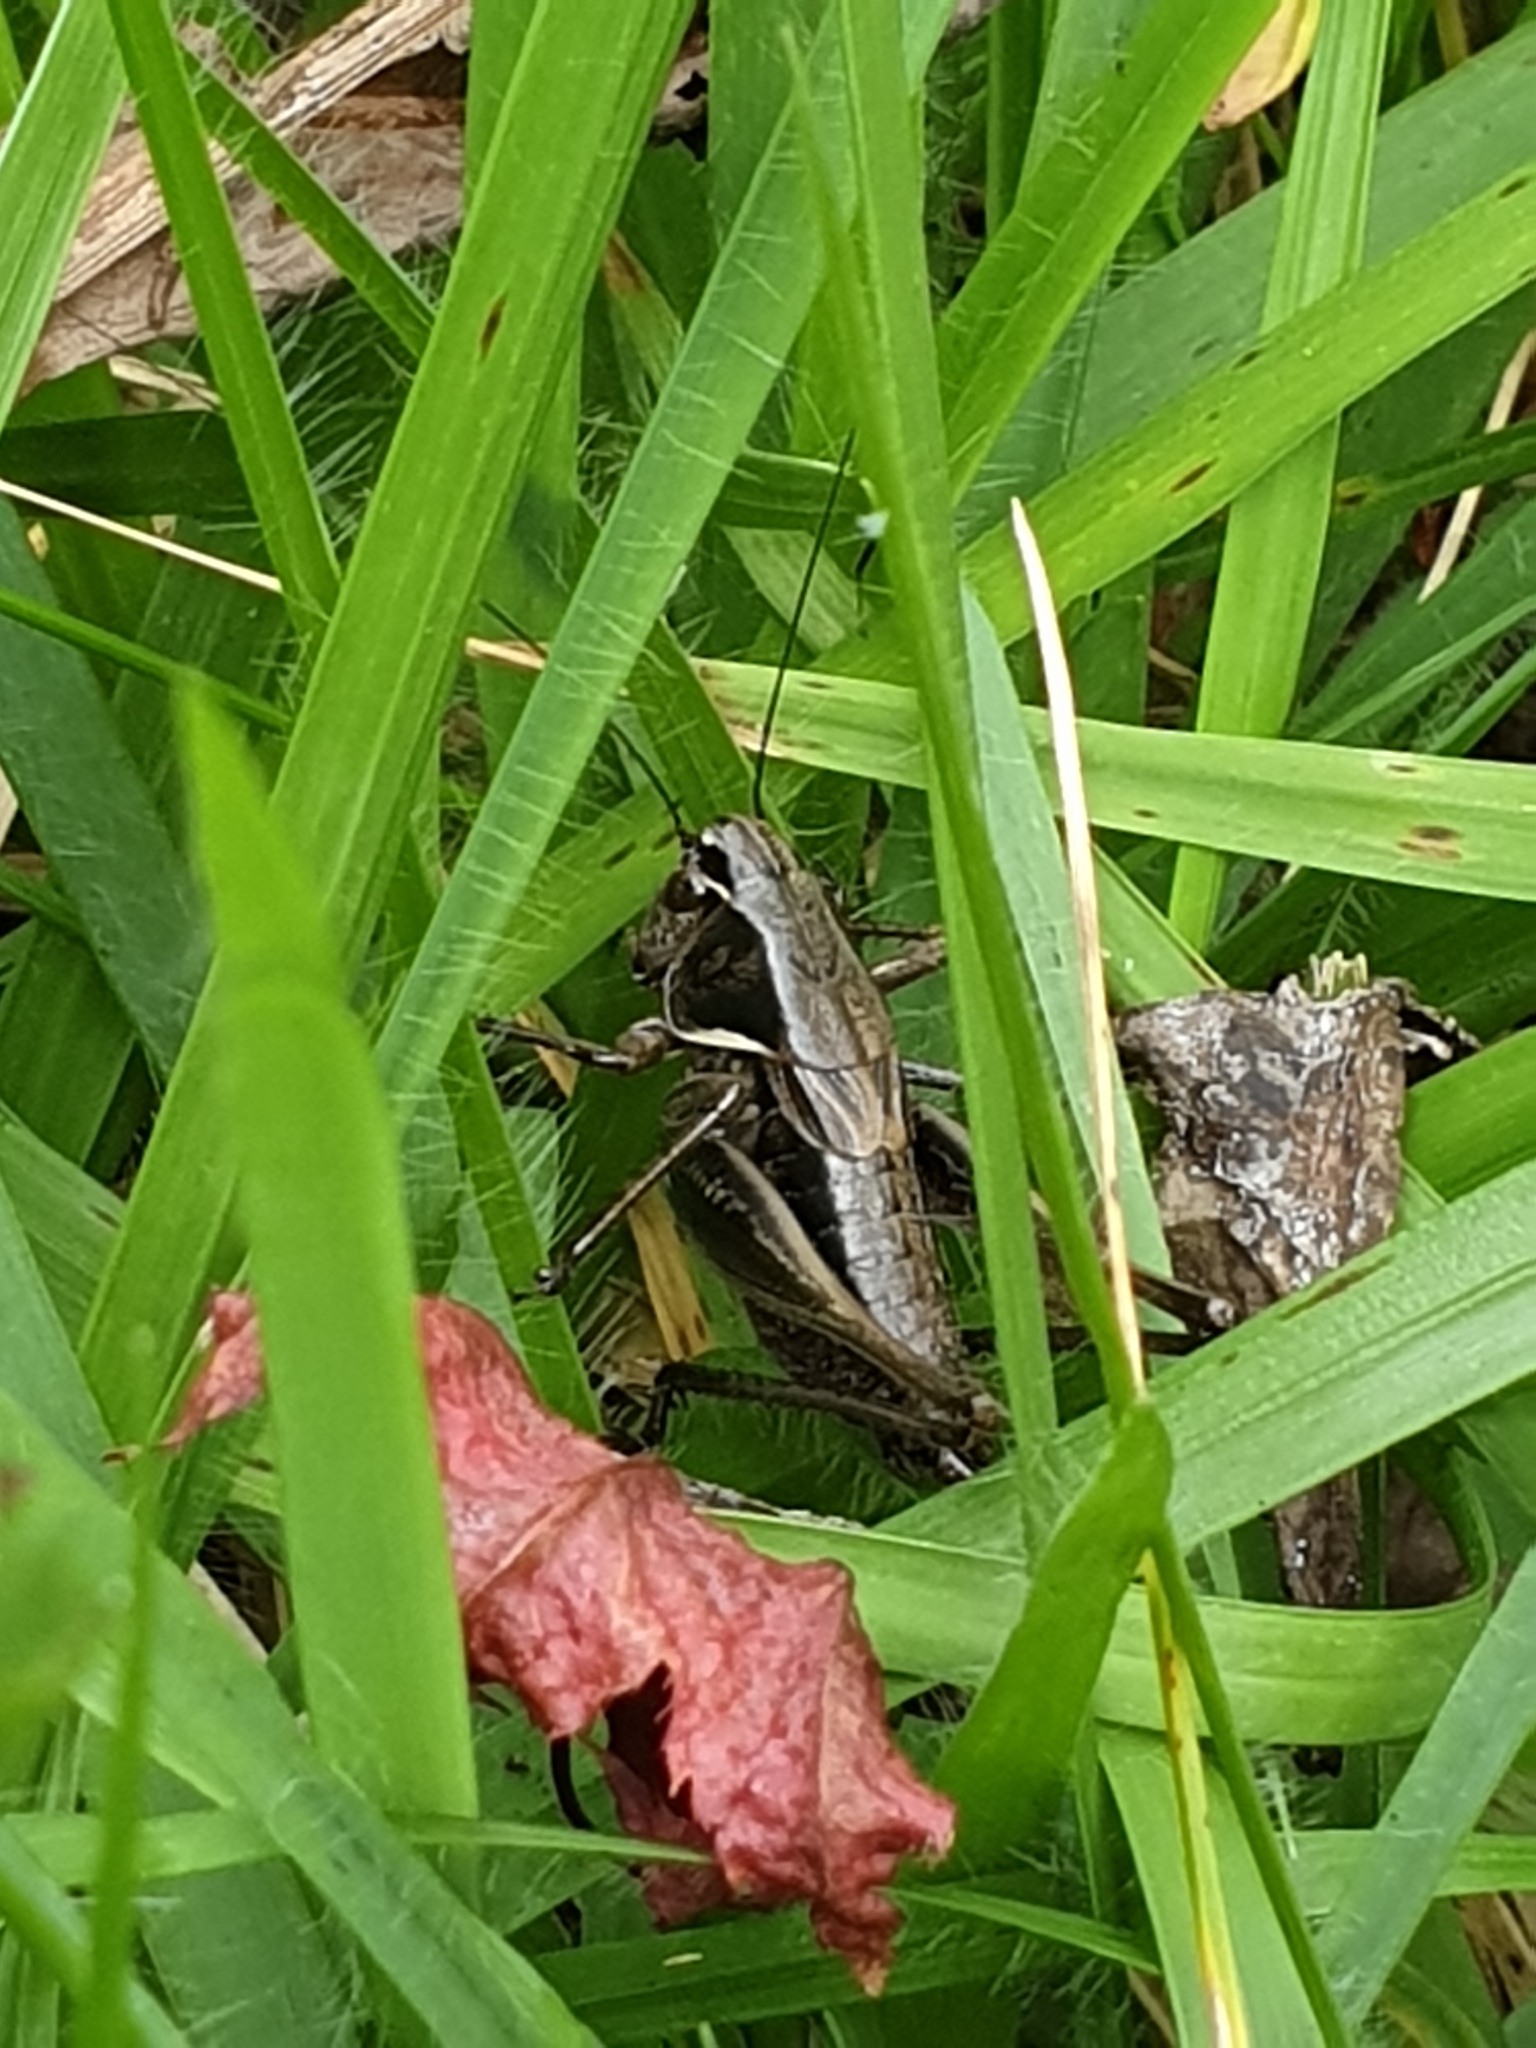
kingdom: Animalia
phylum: Arthropoda
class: Insecta
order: Orthoptera
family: Tettigoniidae
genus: Chizuella
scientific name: Chizuella bonneti
